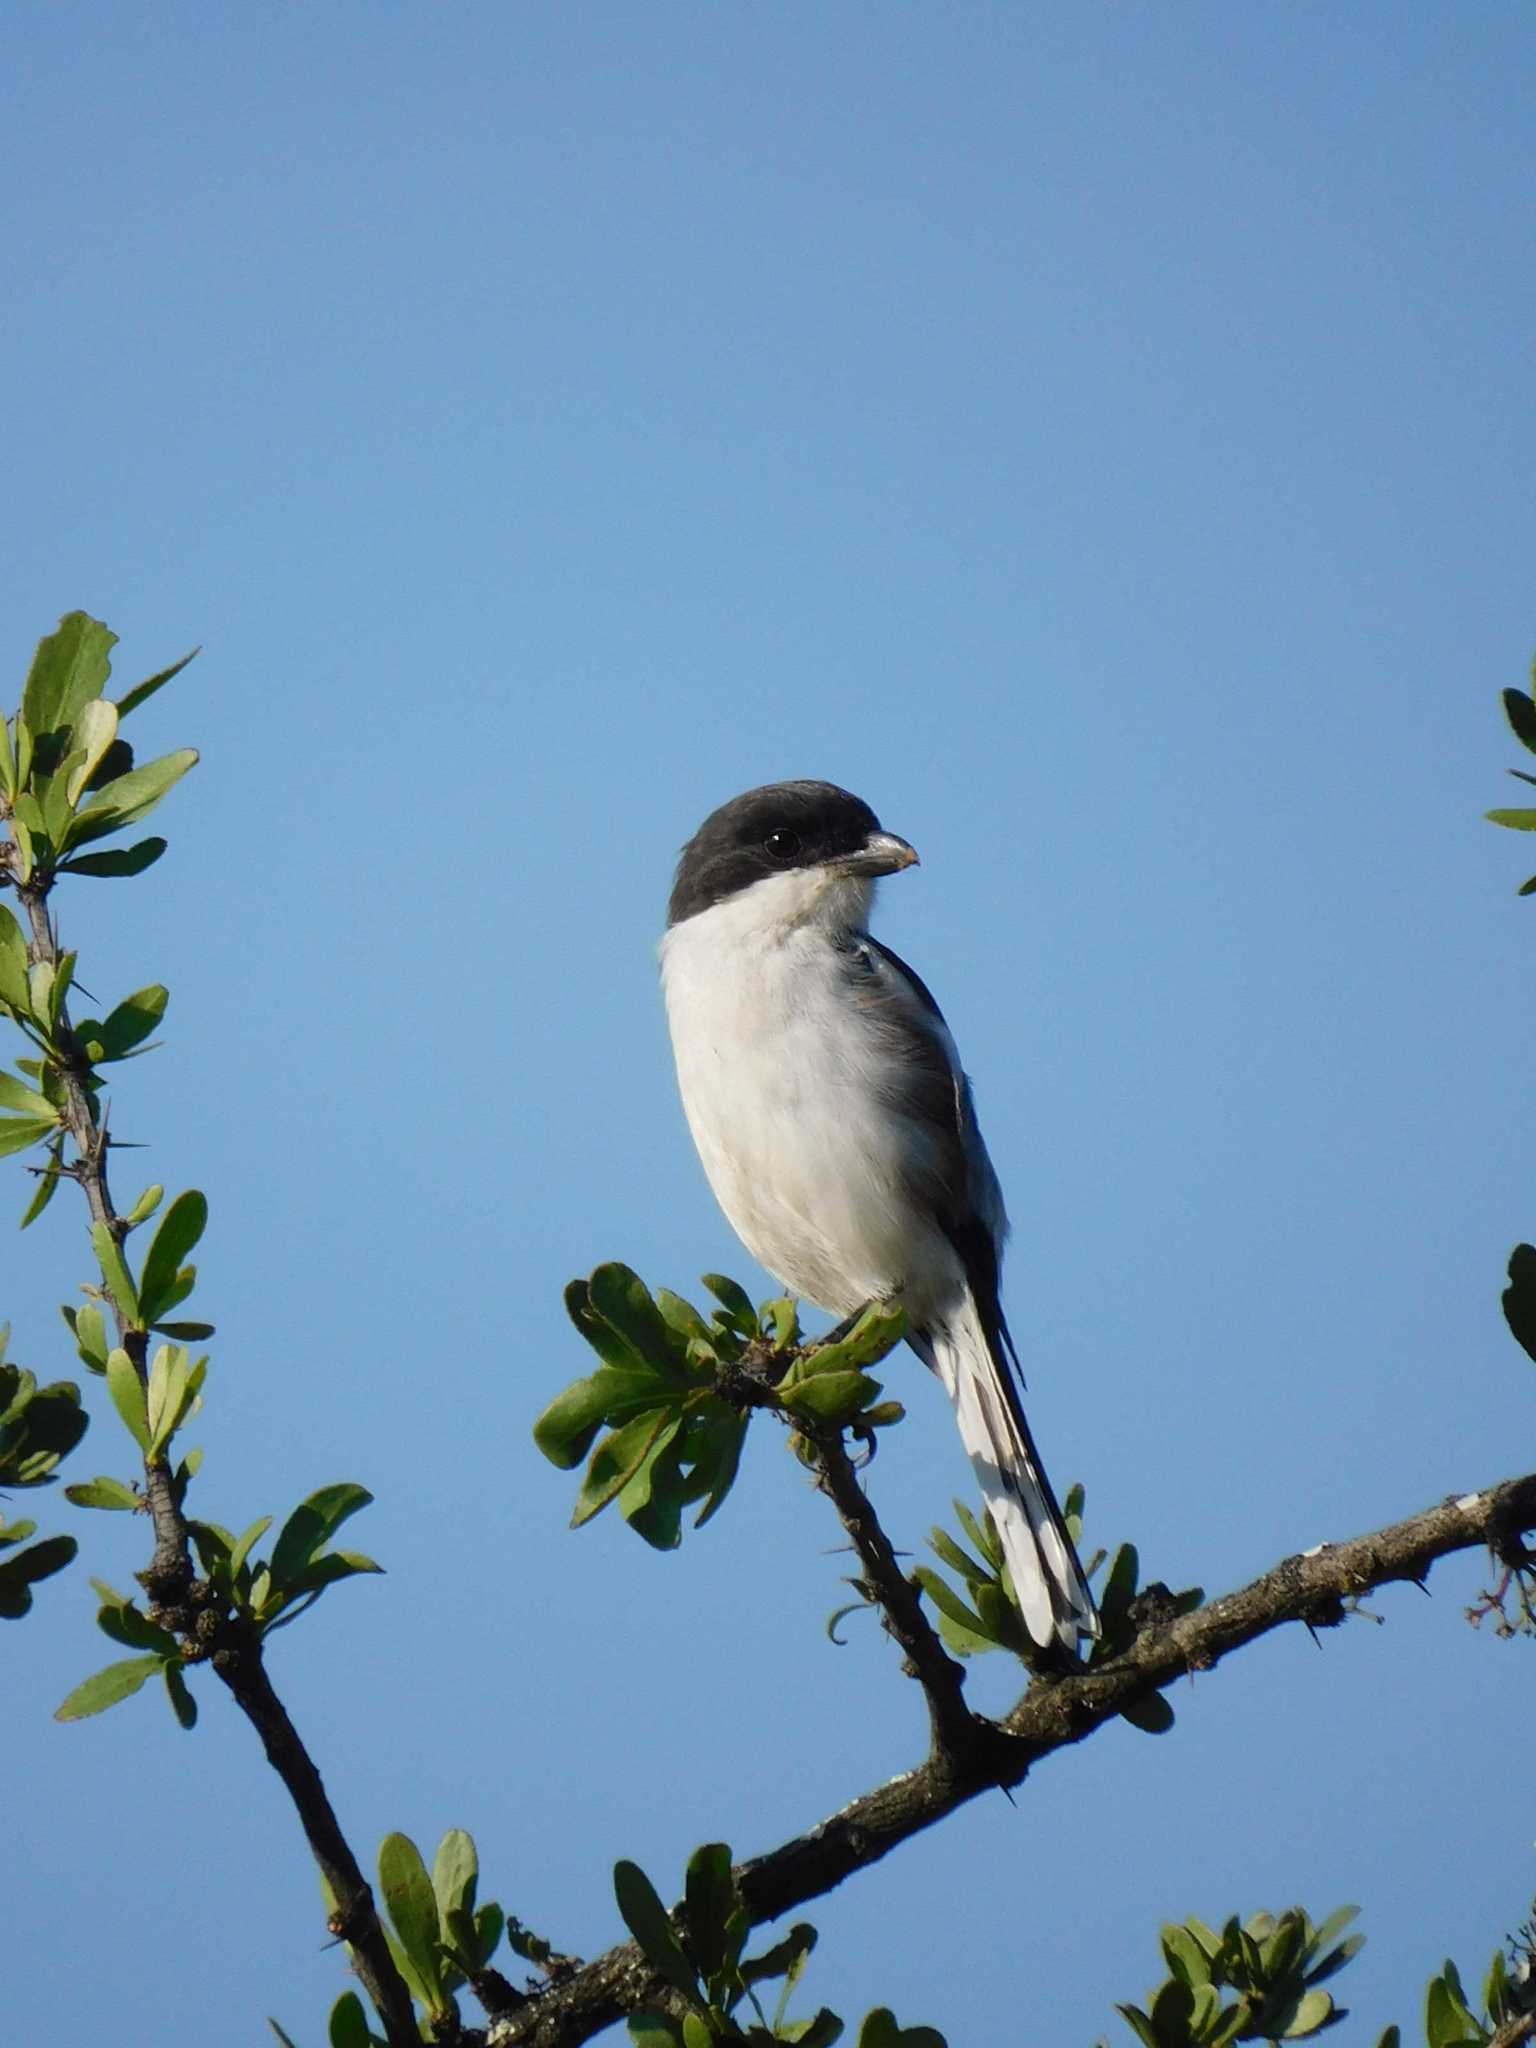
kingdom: Animalia
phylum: Chordata
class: Aves
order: Passeriformes
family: Laniidae
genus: Lanius
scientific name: Lanius collaris
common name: Southern fiscal
